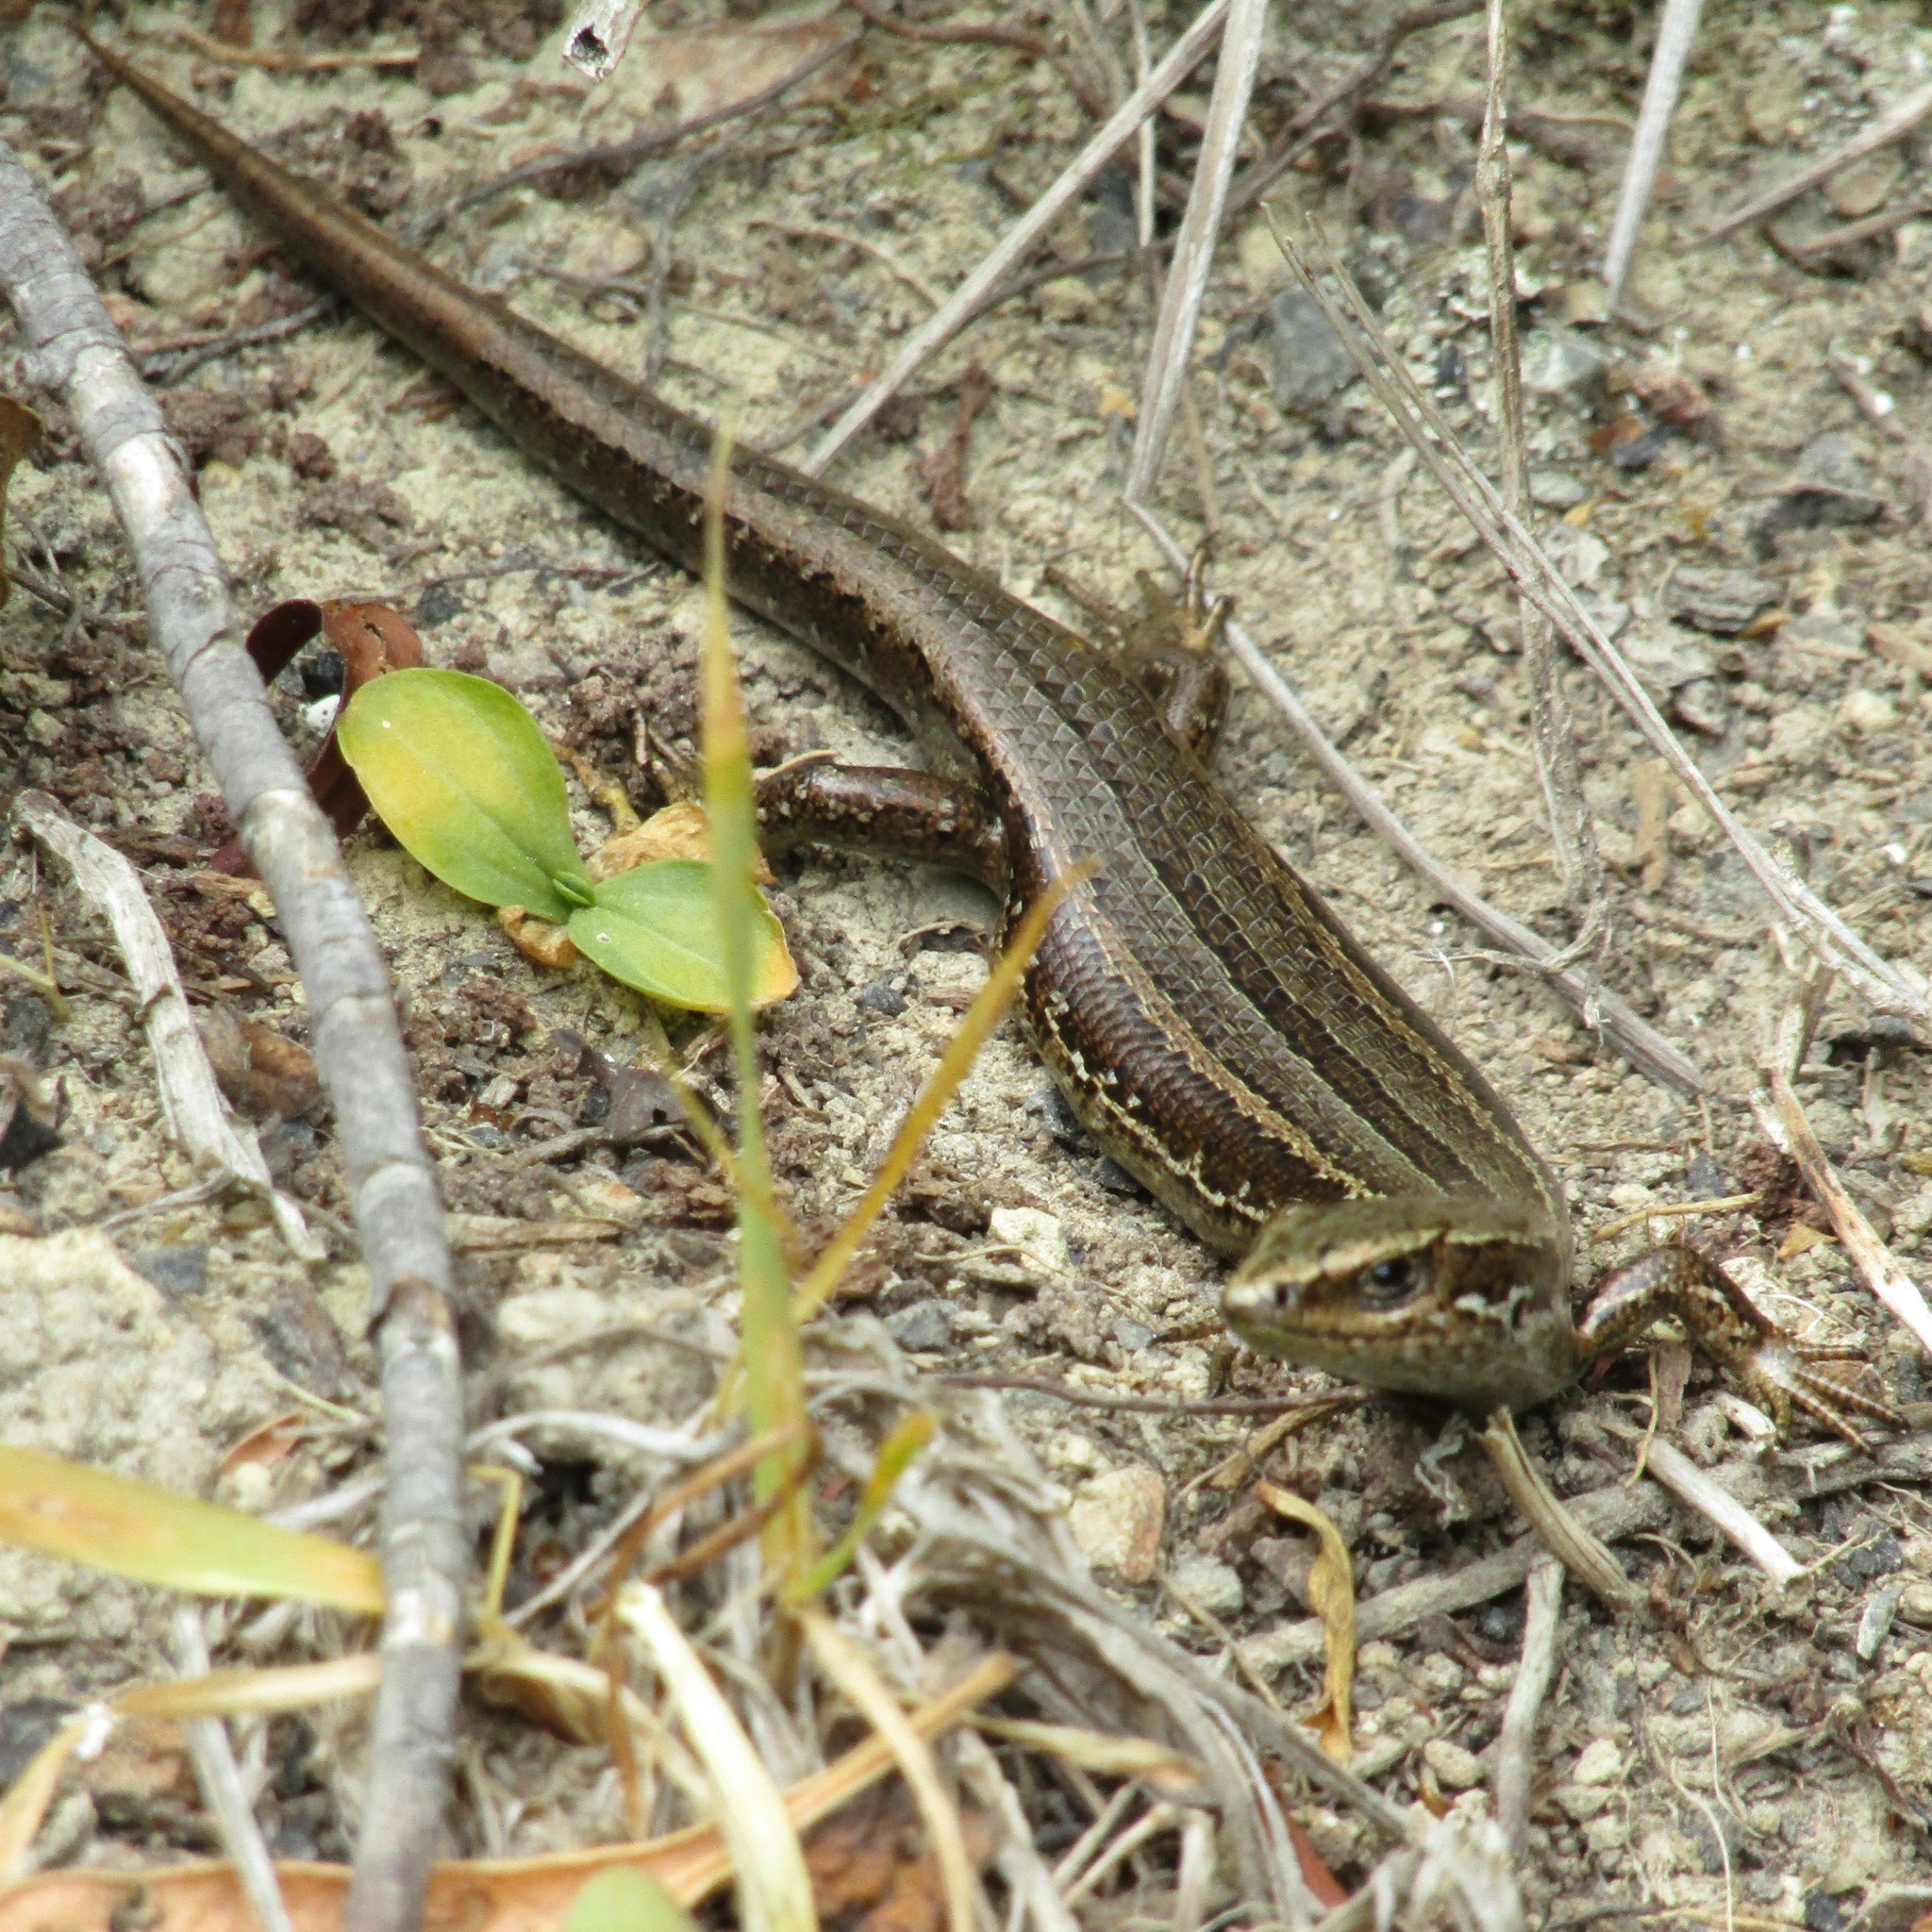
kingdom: Animalia
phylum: Chordata
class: Squamata
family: Scincidae
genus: Oligosoma
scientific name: Oligosoma polychroma
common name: Common new zealand skink
